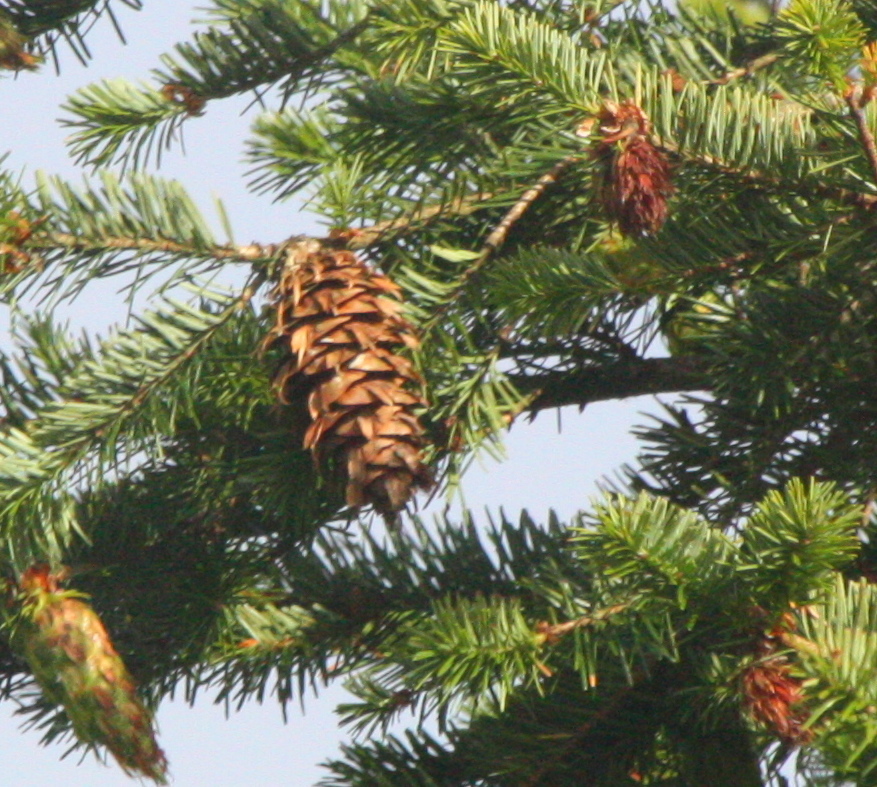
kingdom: Plantae
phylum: Tracheophyta
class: Pinopsida
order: Pinales
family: Pinaceae
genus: Pseudotsuga
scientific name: Pseudotsuga menziesii
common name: Douglas fir
